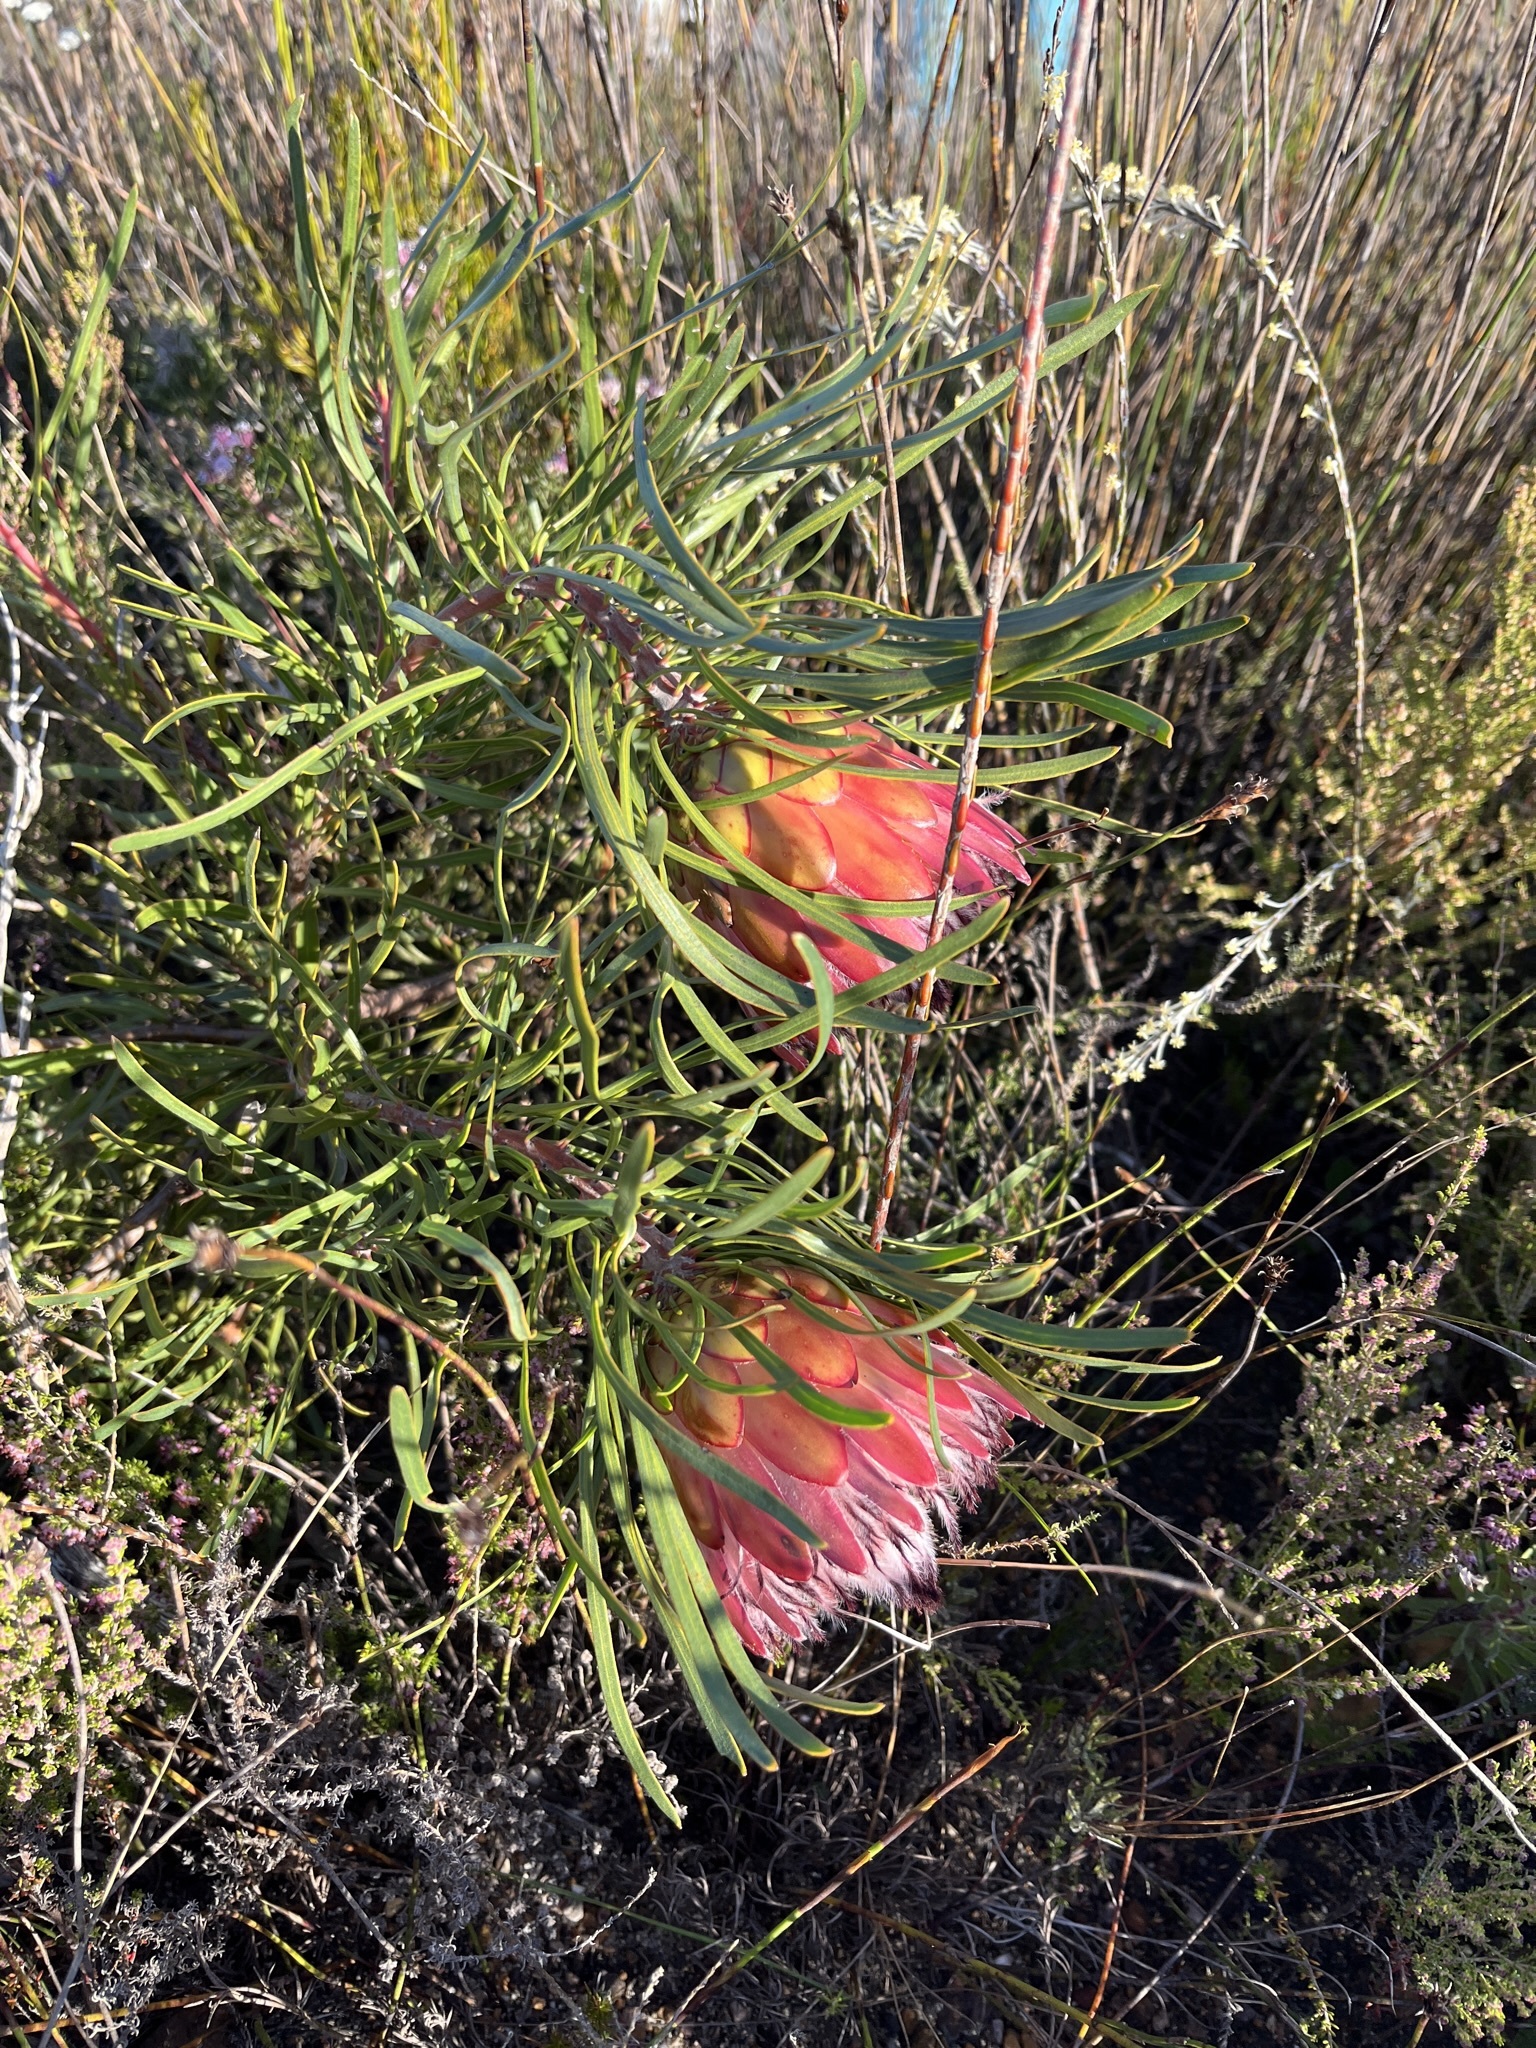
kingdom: Plantae
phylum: Tracheophyta
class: Magnoliopsida
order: Proteales
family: Proteaceae
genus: Protea
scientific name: Protea pudens
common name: Bashful sugarbush
